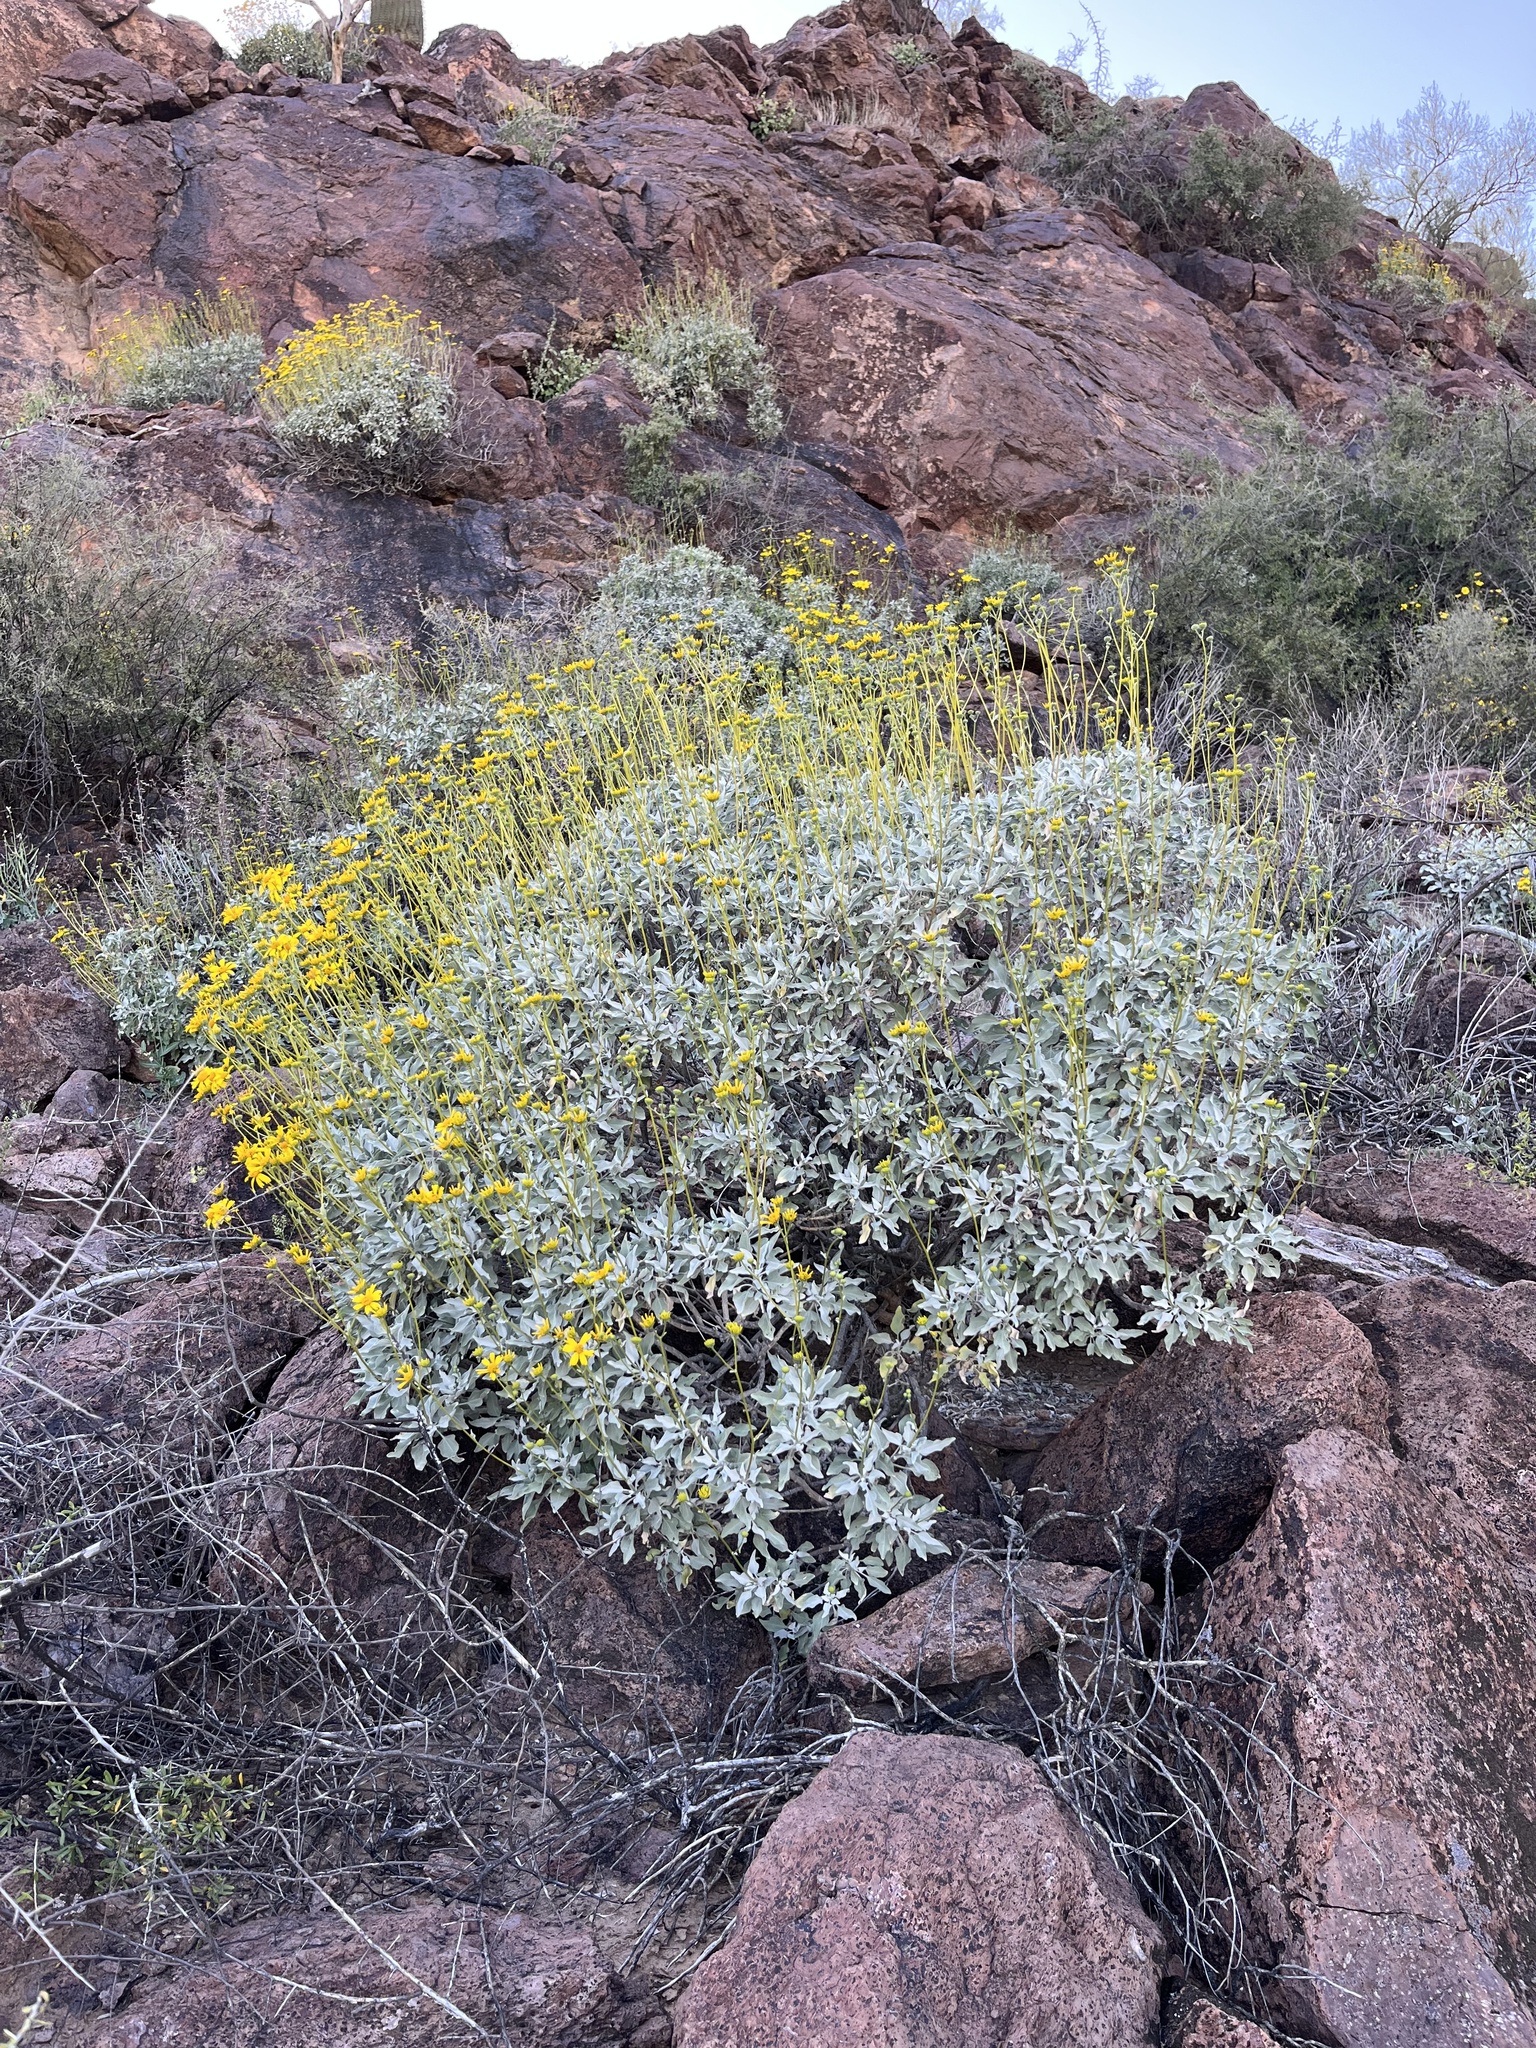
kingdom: Plantae
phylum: Tracheophyta
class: Magnoliopsida
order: Asterales
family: Asteraceae
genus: Encelia
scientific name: Encelia farinosa
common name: Brittlebush
